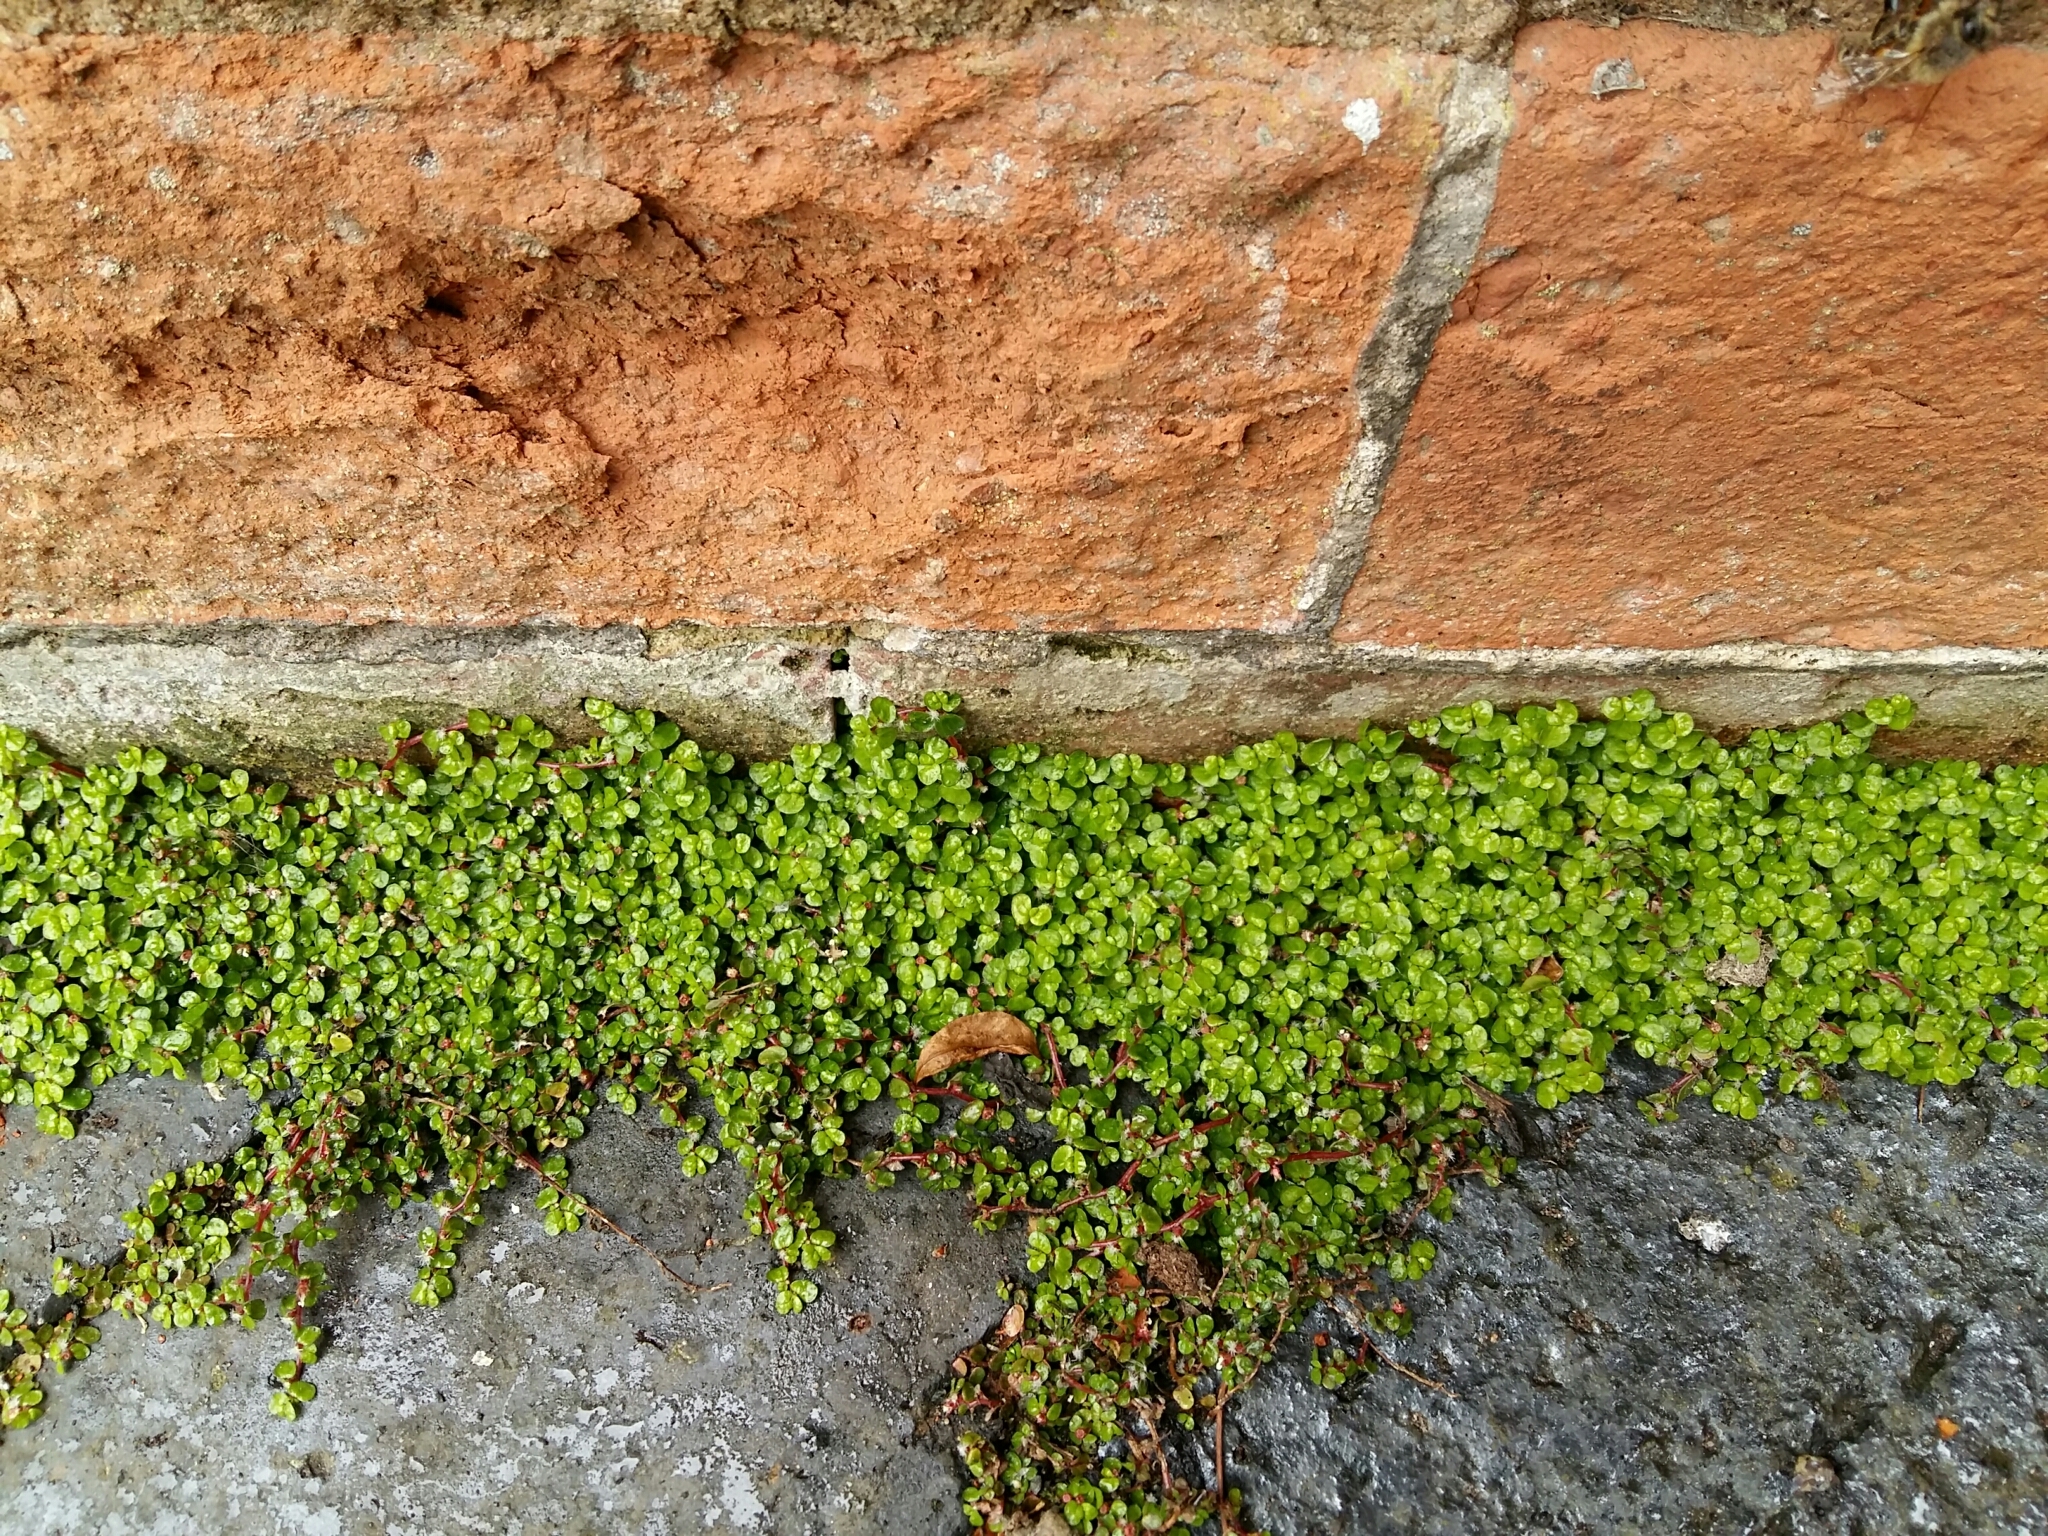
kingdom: Plantae
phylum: Tracheophyta
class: Magnoliopsida
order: Rosales
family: Urticaceae
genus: Soleirolia
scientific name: Soleirolia soleirolii
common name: Mind-your-own-business
